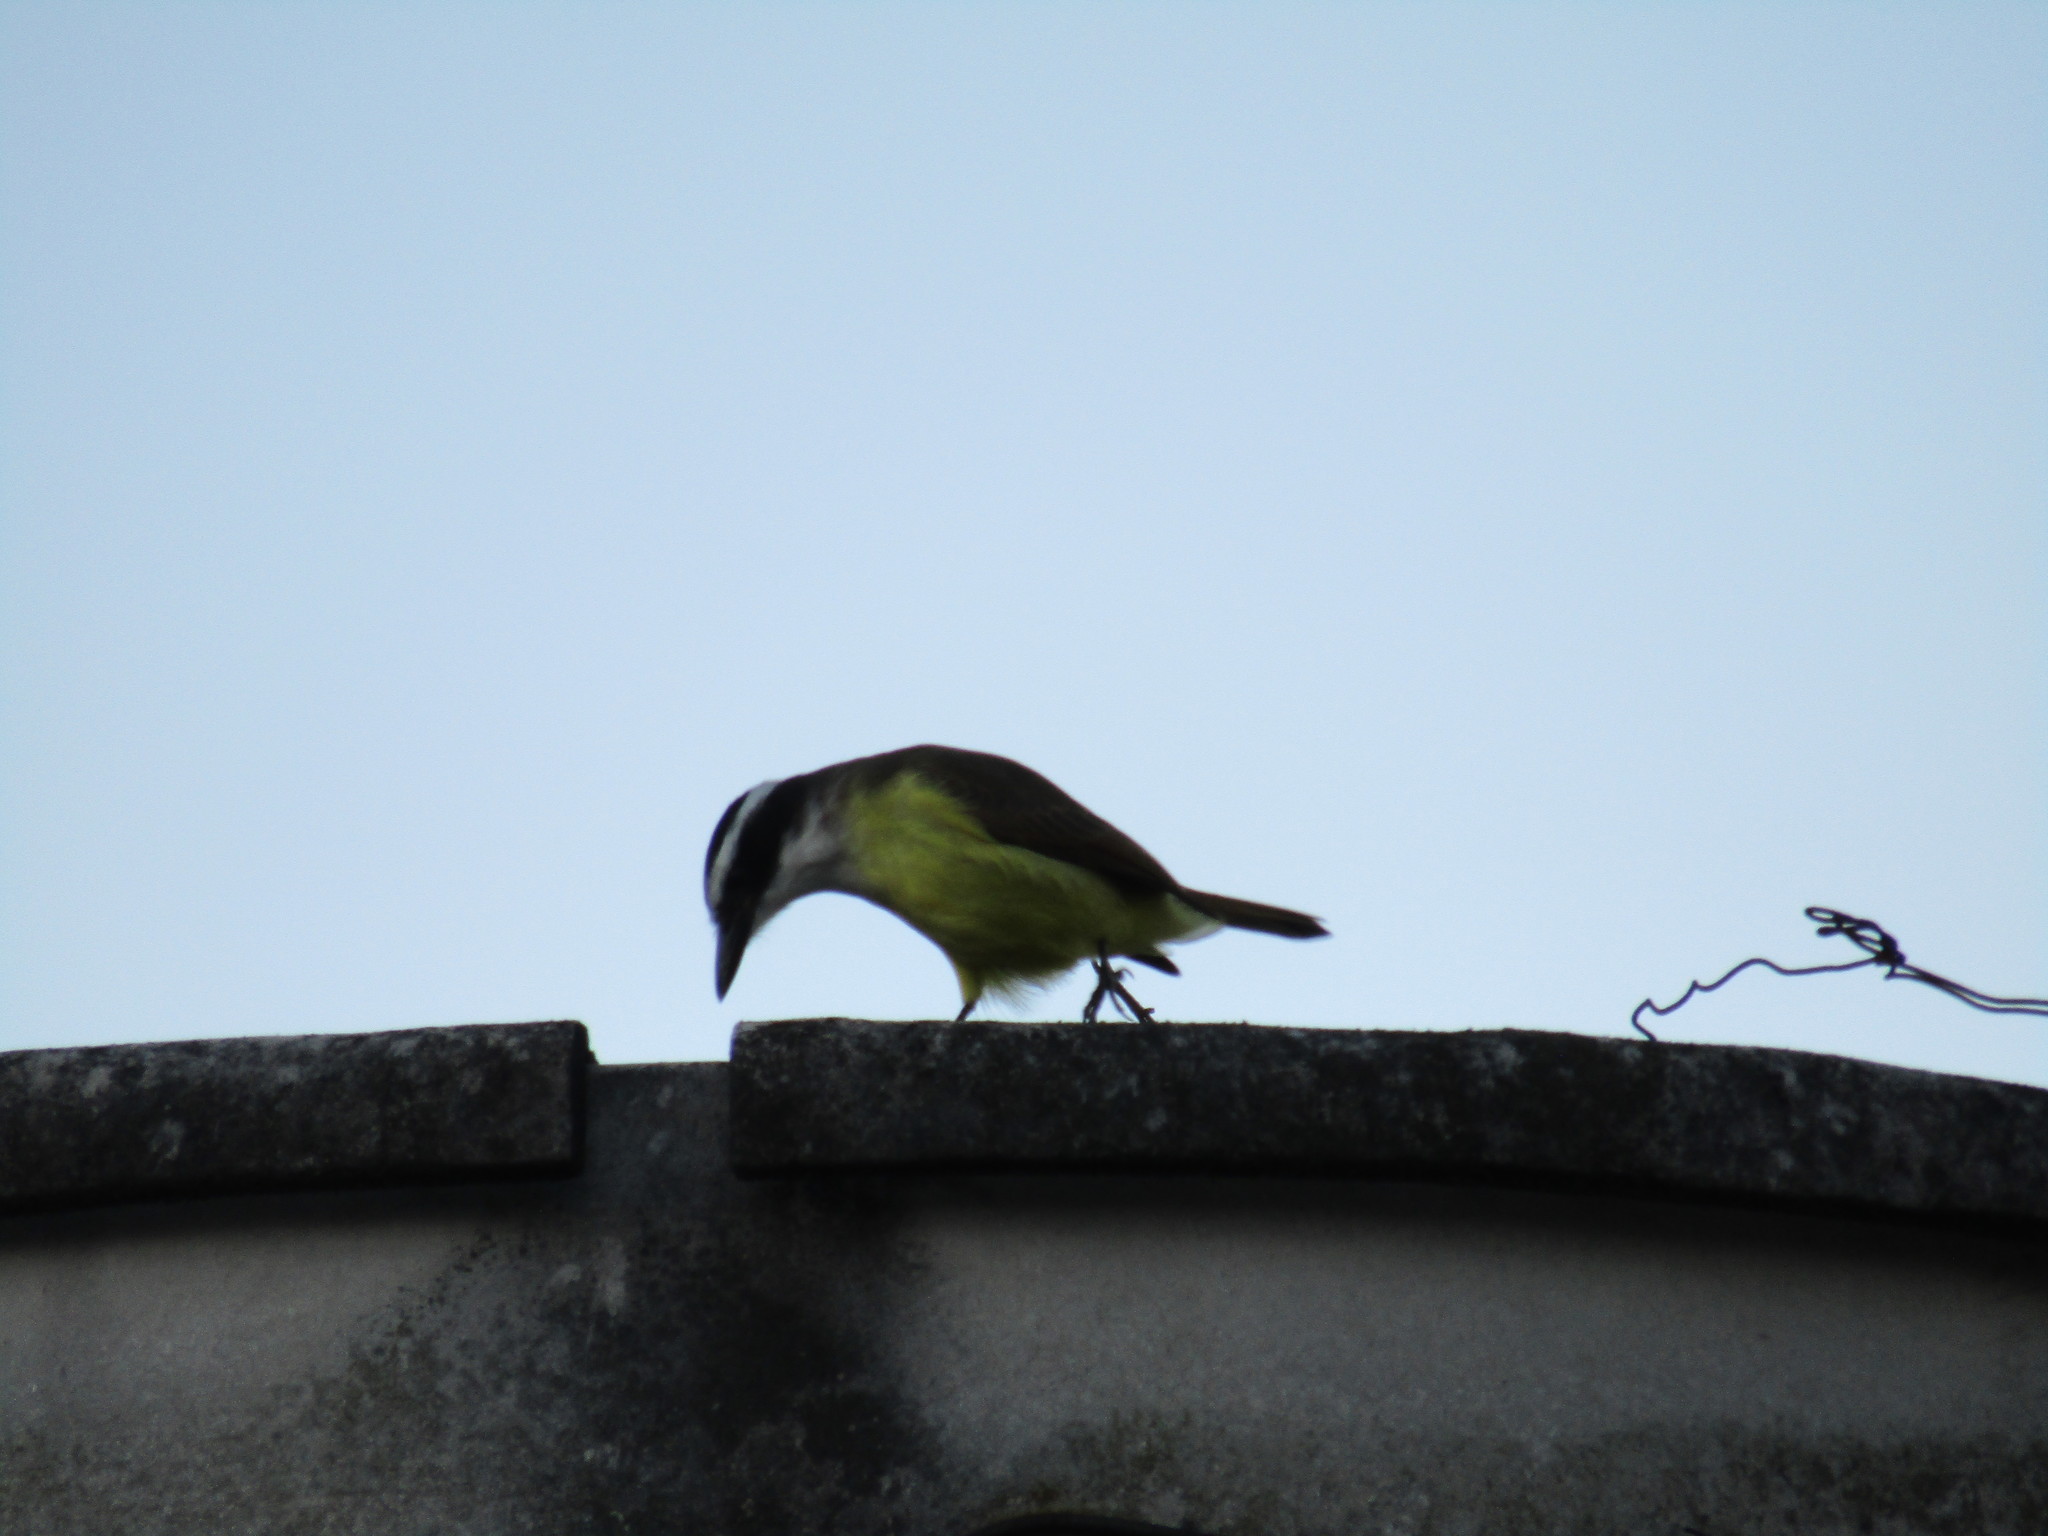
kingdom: Animalia
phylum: Chordata
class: Aves
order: Passeriformes
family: Tyrannidae
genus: Pitangus
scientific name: Pitangus sulphuratus
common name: Great kiskadee
